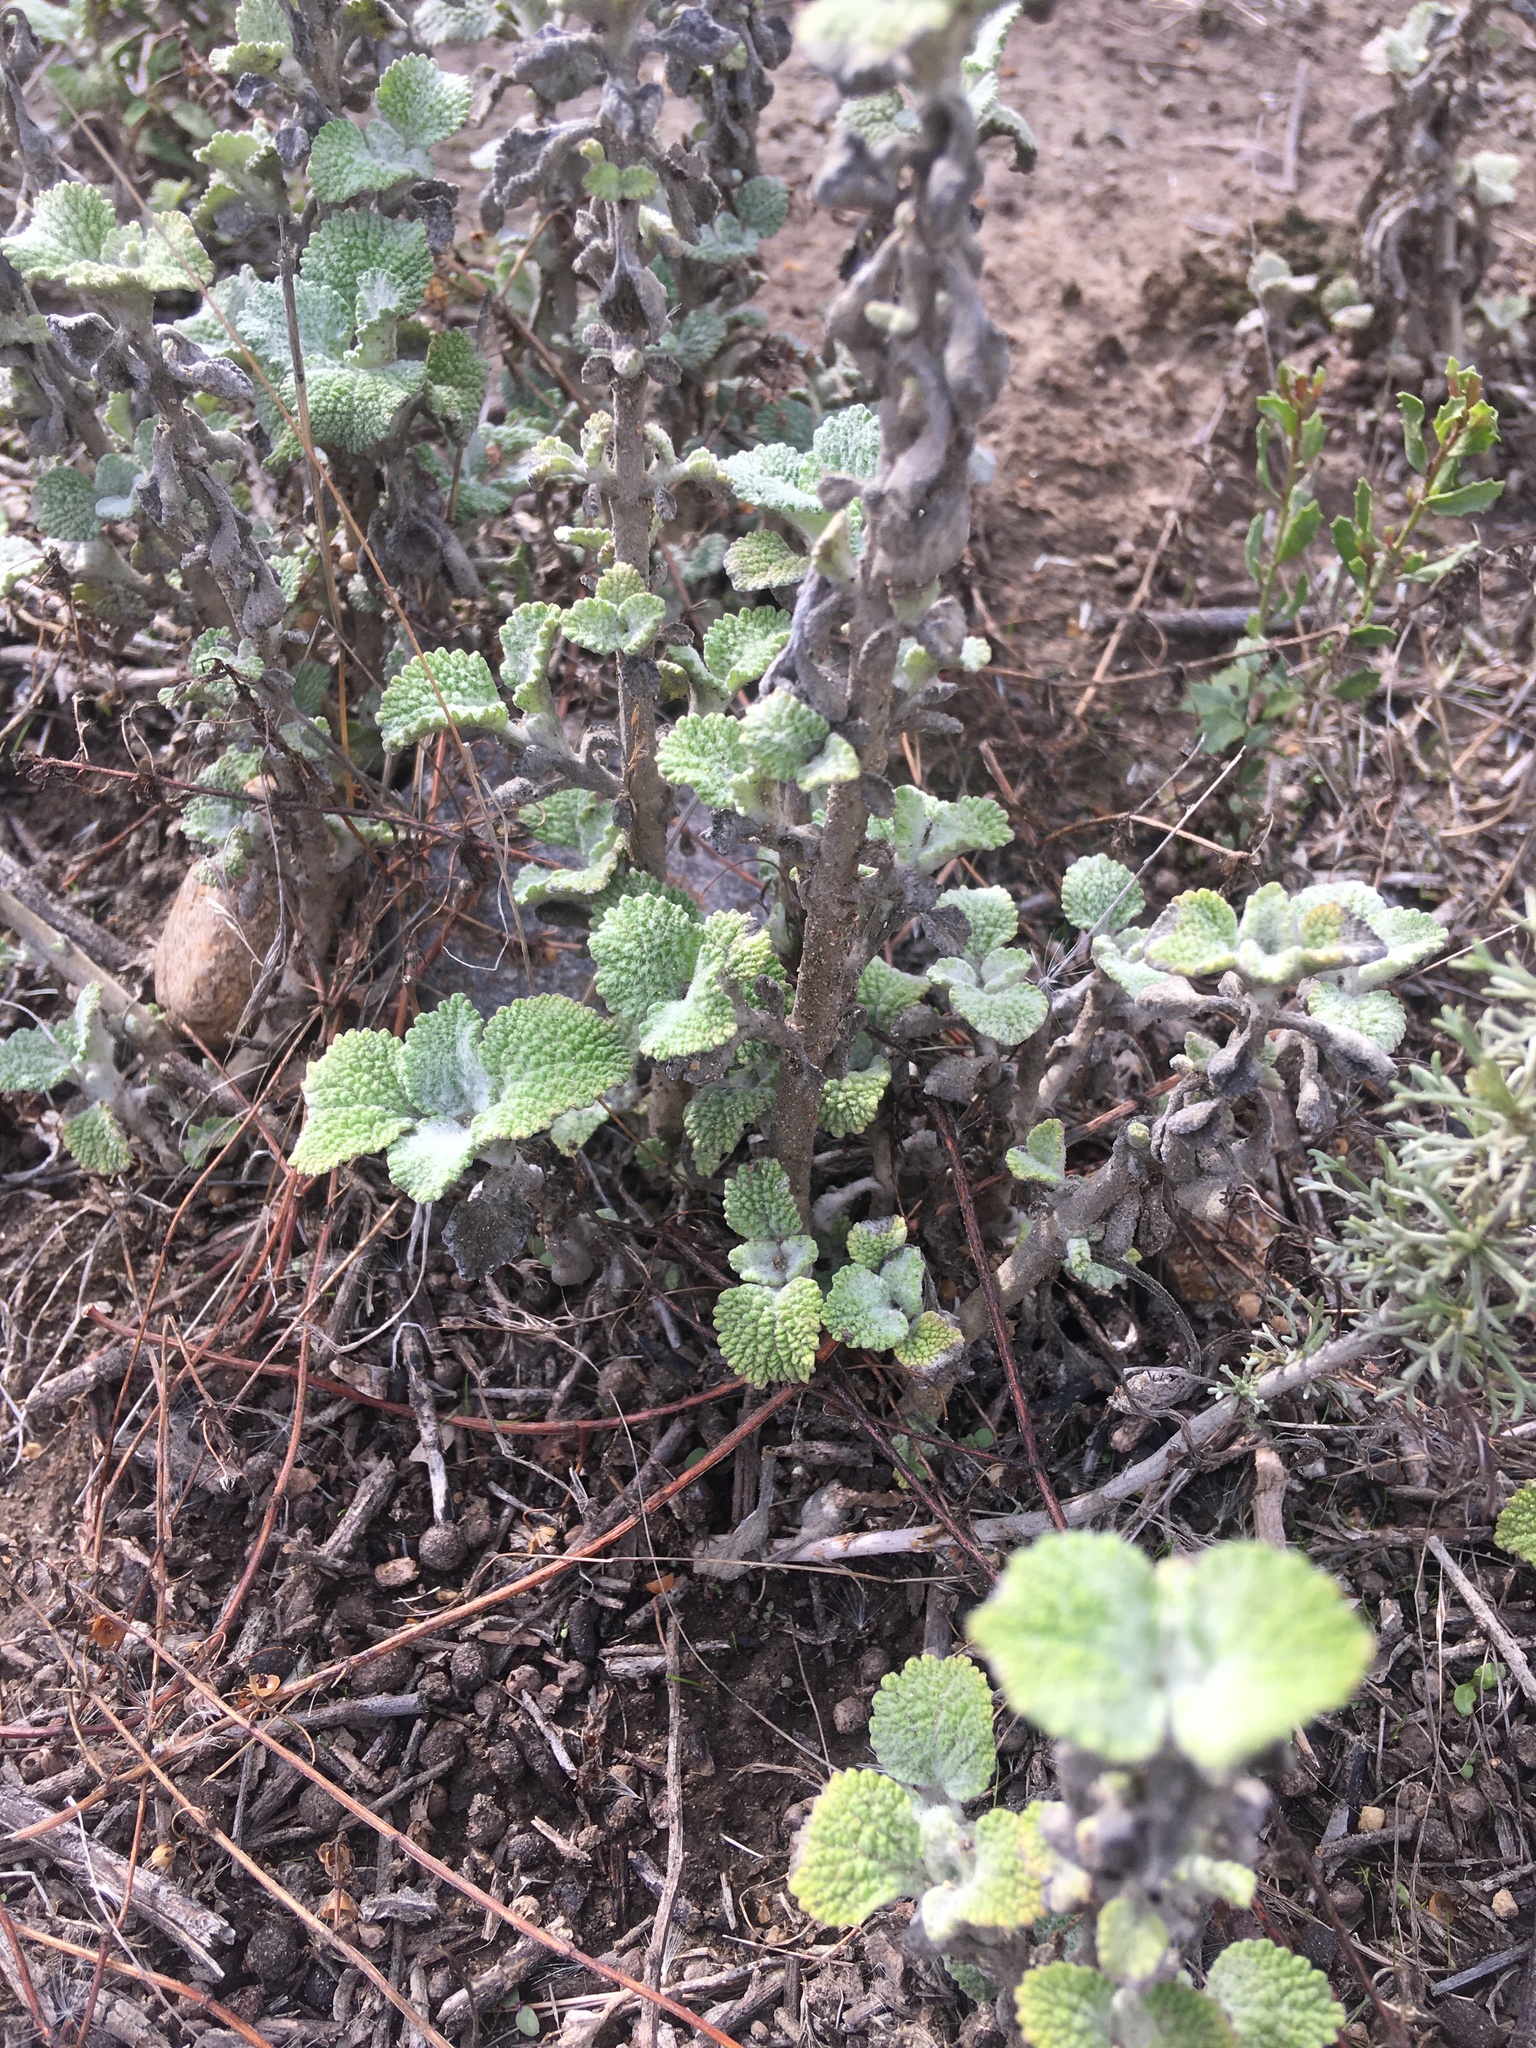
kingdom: Plantae
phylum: Tracheophyta
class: Magnoliopsida
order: Lamiales
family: Lamiaceae
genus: Marrubium
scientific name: Marrubium vulgare
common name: Horehound
